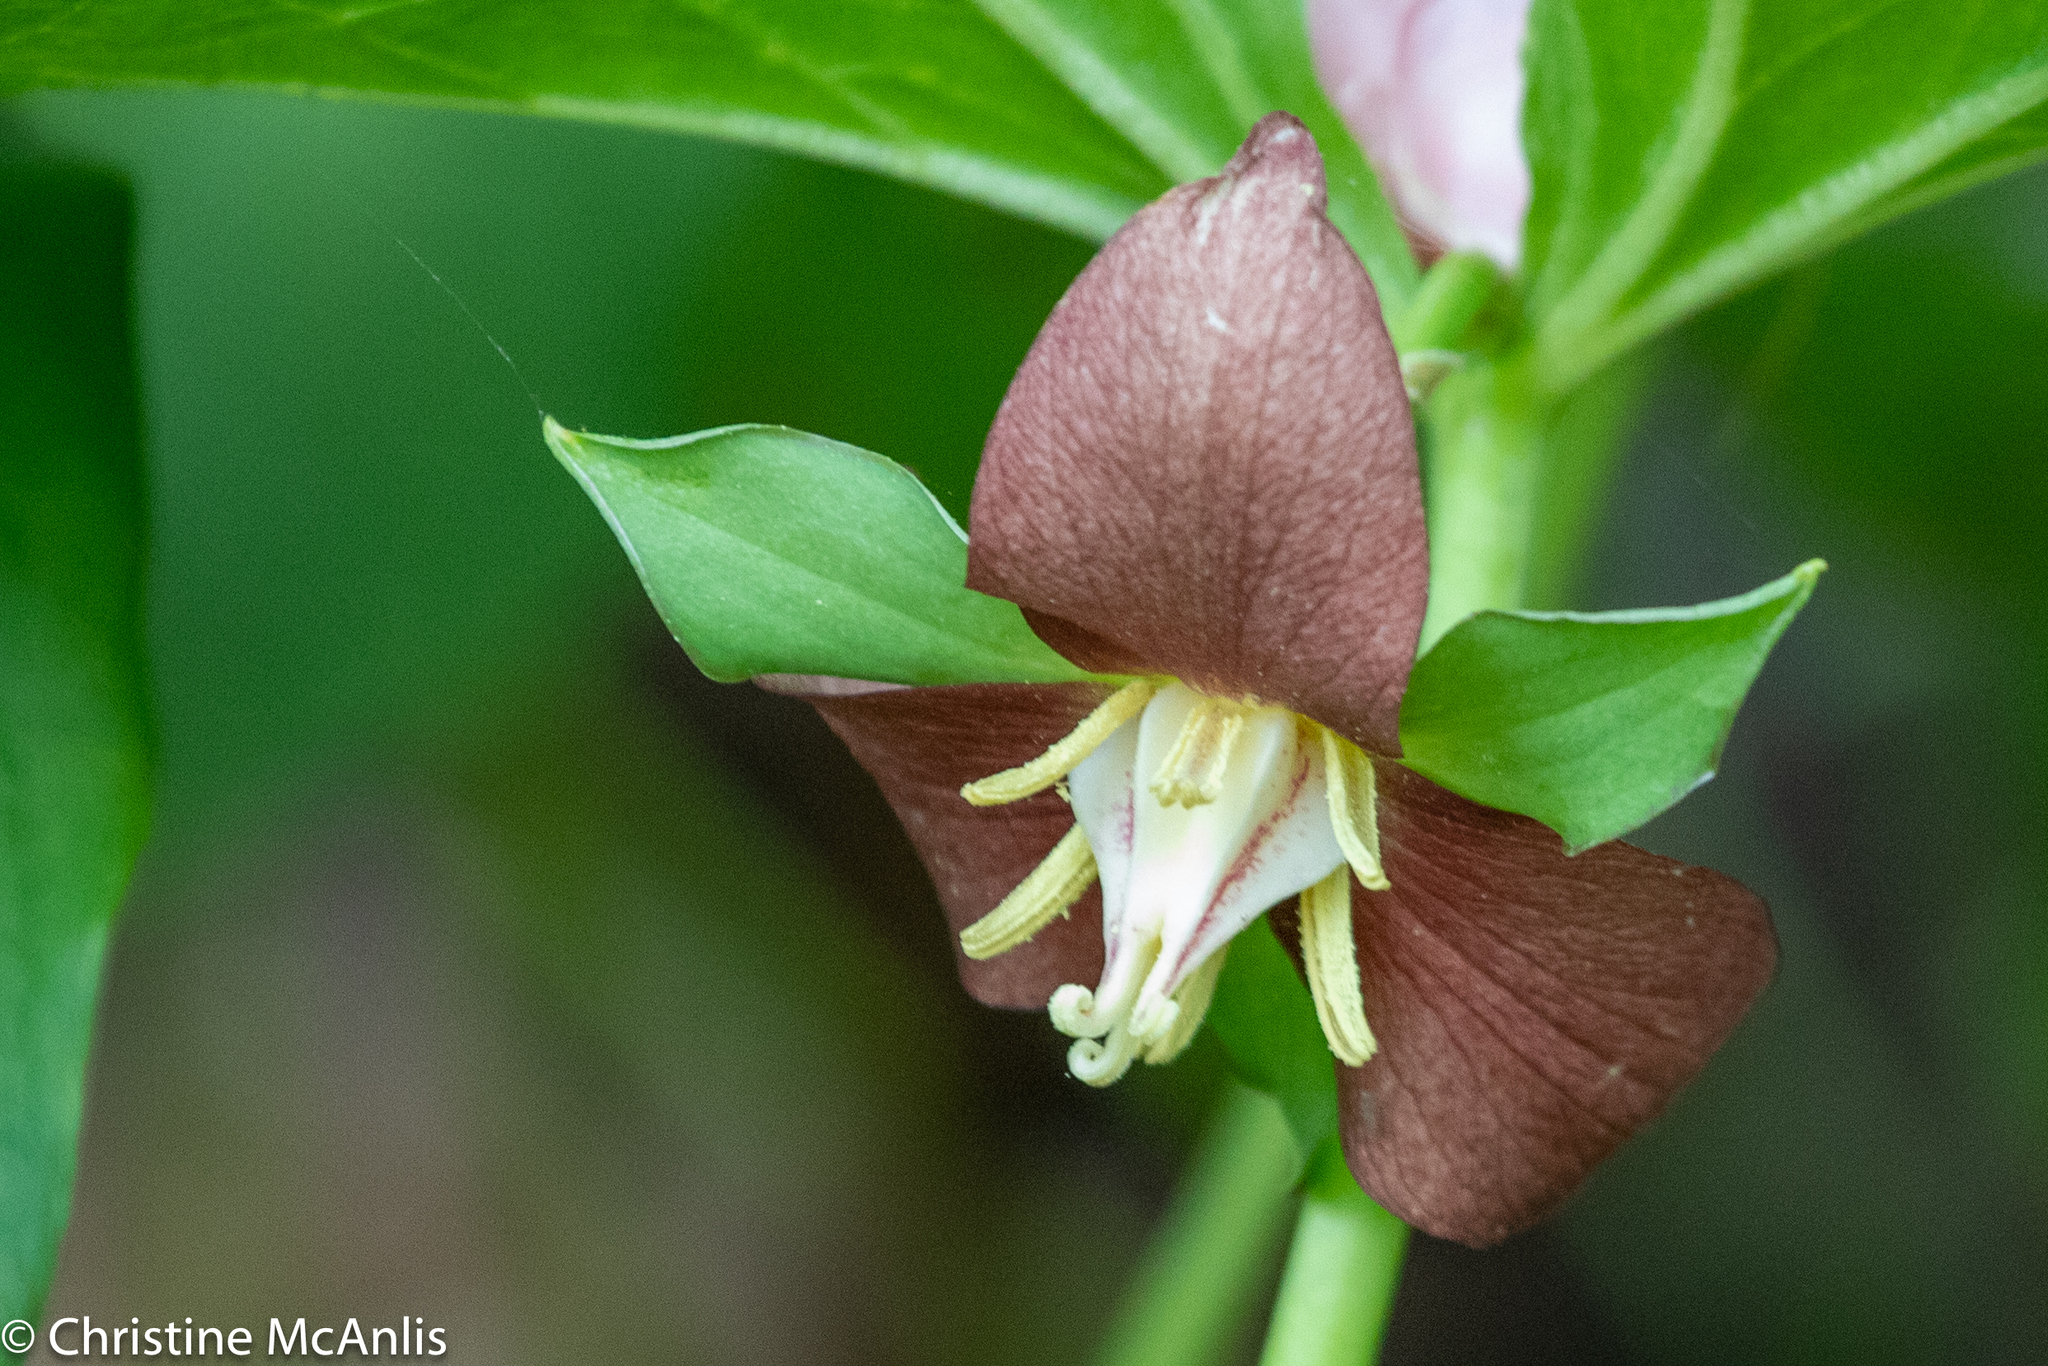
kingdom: Plantae
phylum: Tracheophyta
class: Liliopsida
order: Liliales
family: Melanthiaceae
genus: Trillium
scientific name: Trillium flexipes
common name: Drooping trillium
